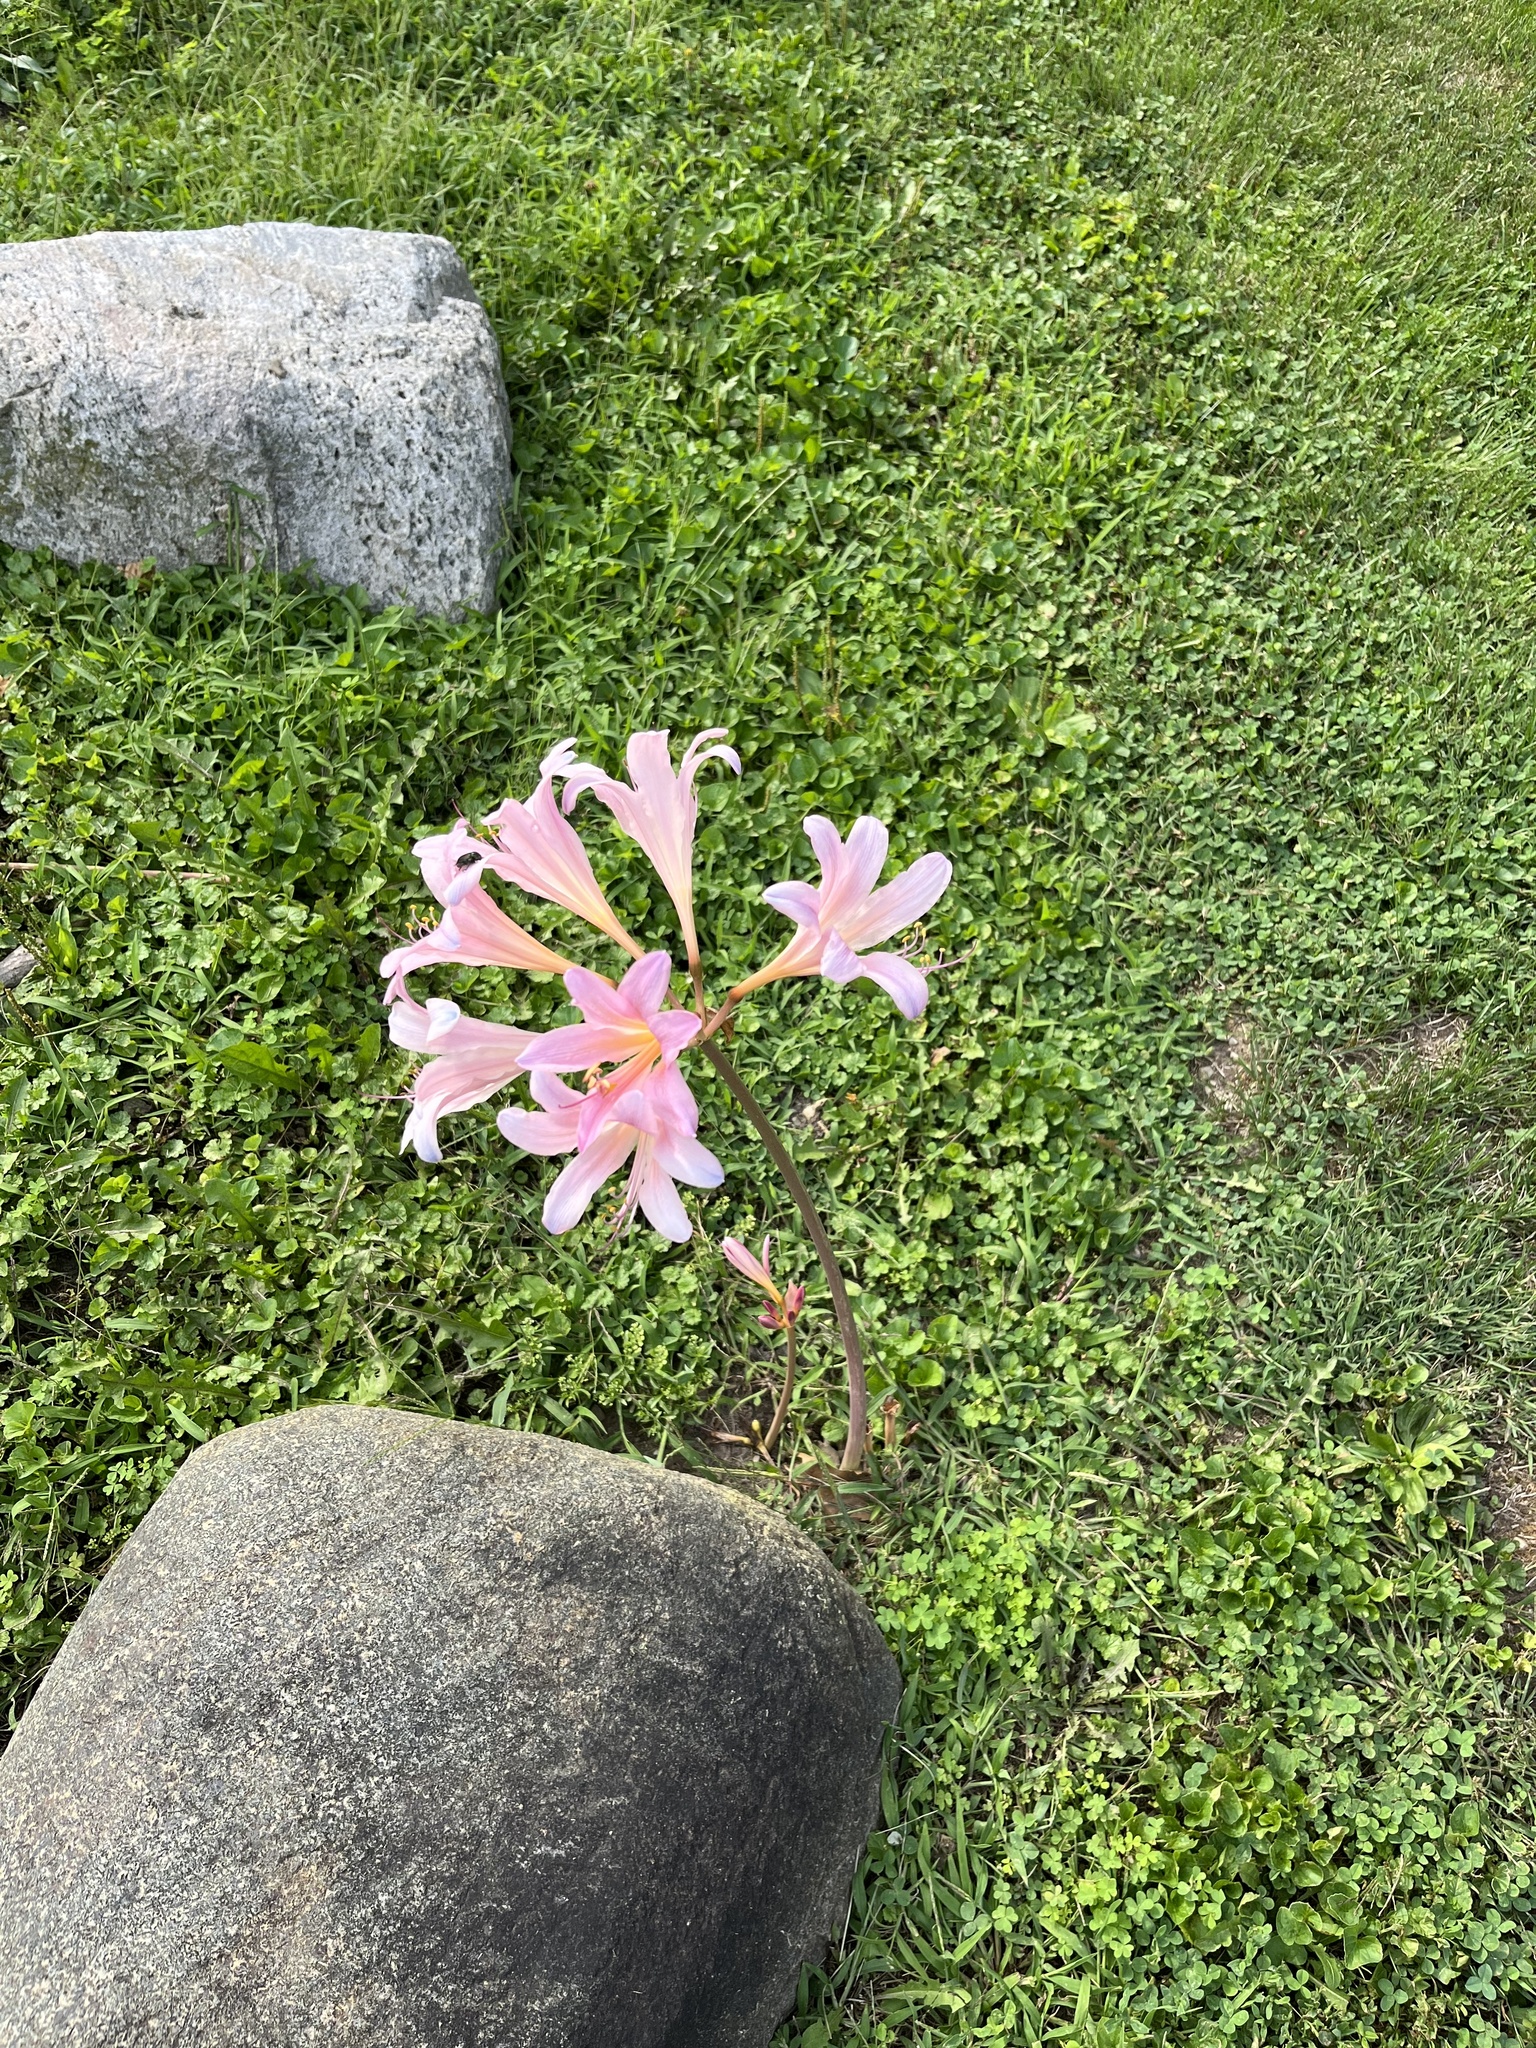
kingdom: Plantae
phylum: Tracheophyta
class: Liliopsida
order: Asparagales
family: Amaryllidaceae
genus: Lycoris
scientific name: Lycoris squamigera
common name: Magic-lily
